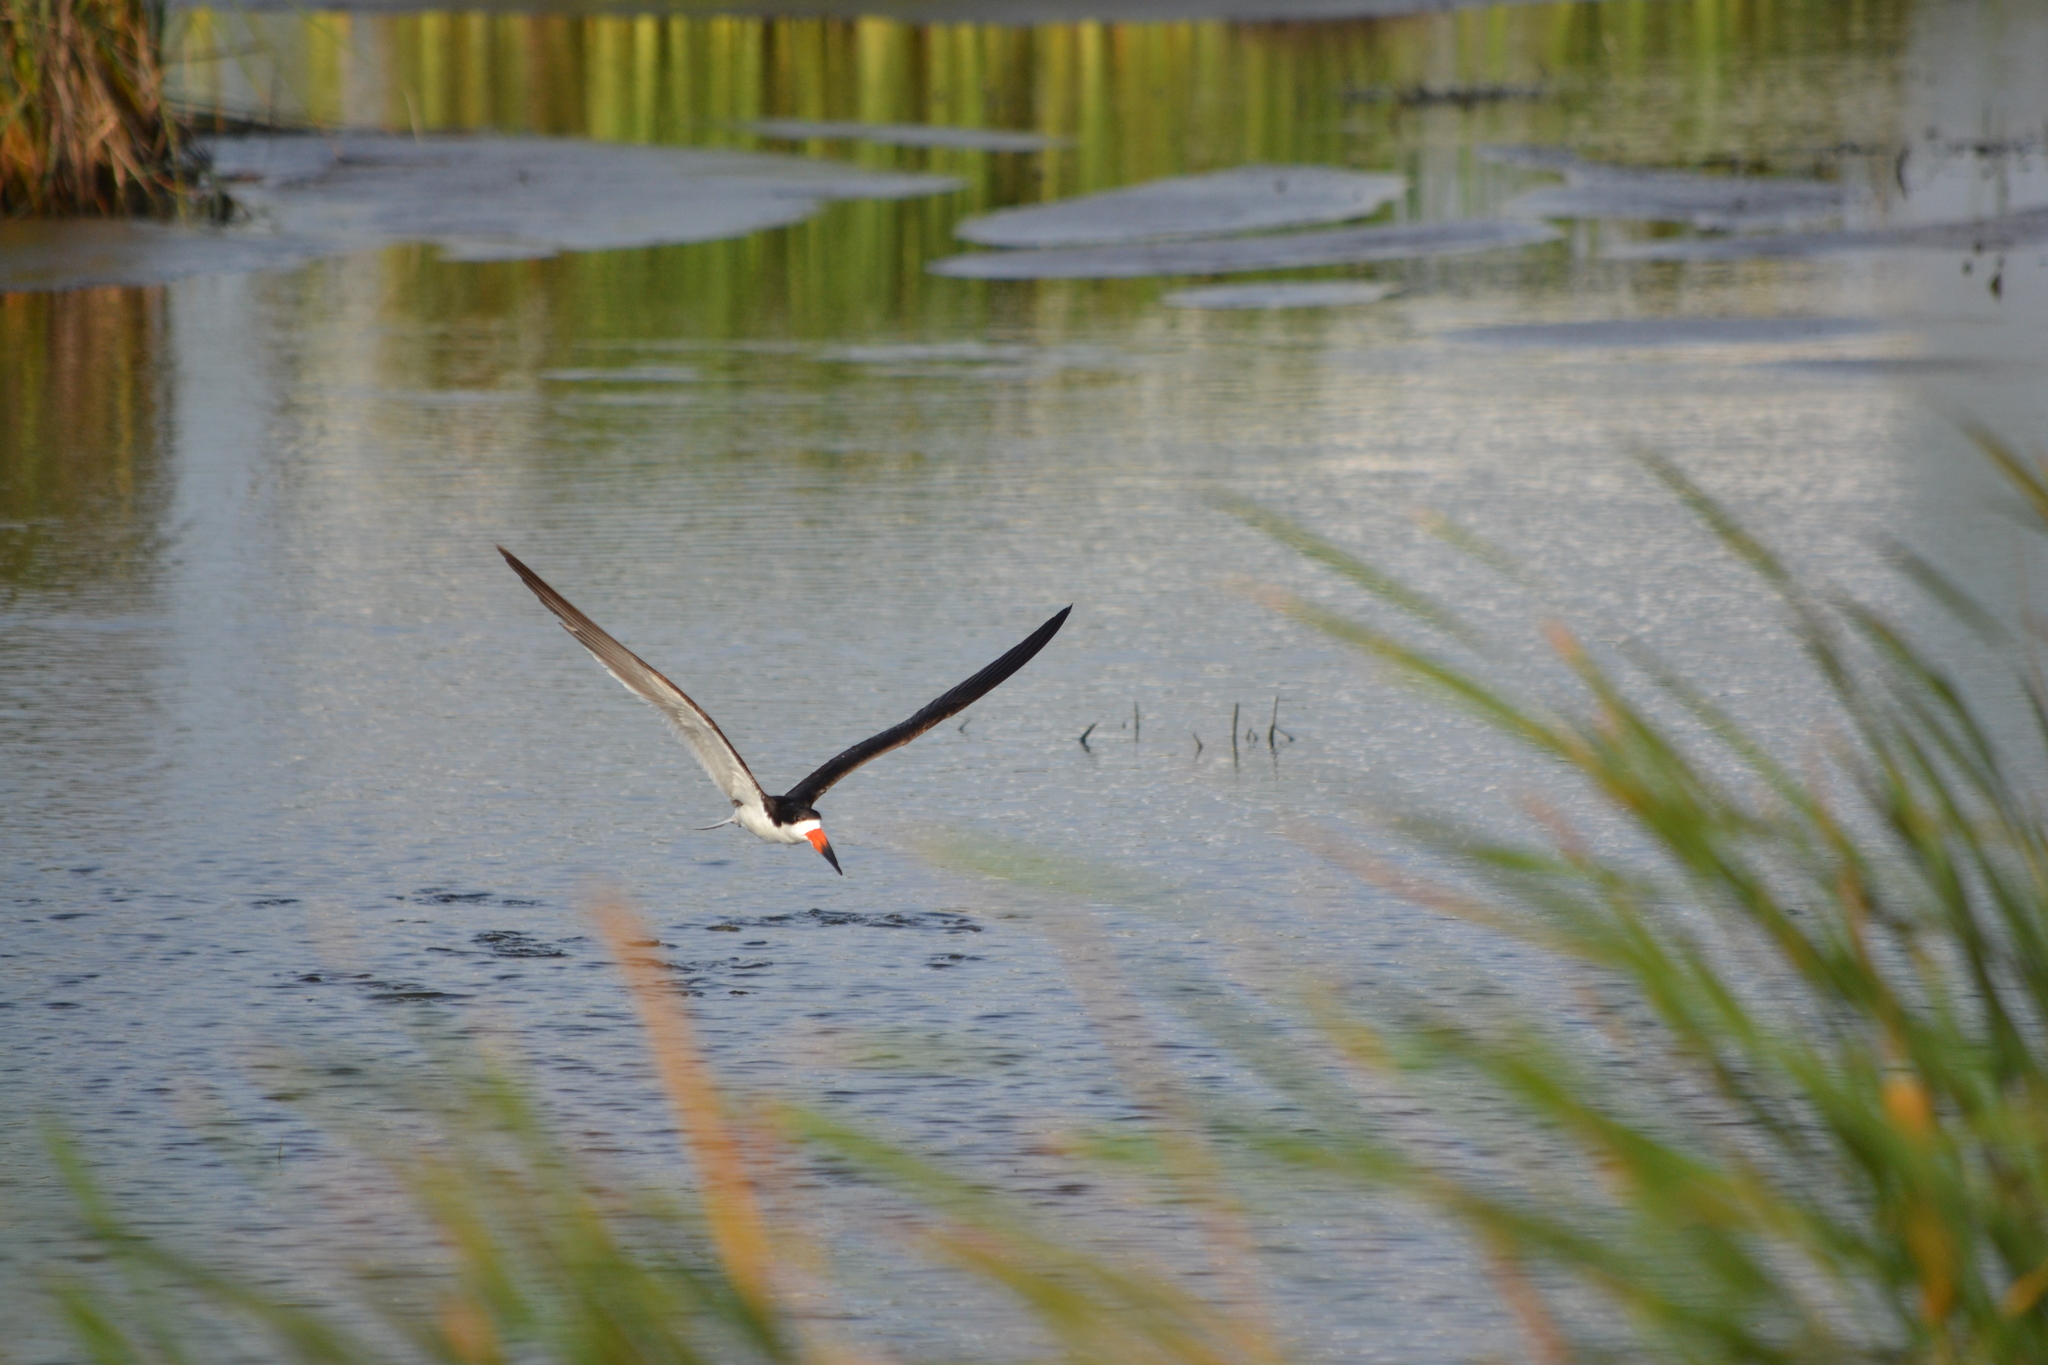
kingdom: Animalia
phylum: Chordata
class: Aves
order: Charadriiformes
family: Laridae
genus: Rynchops
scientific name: Rynchops niger
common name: Black skimmer
